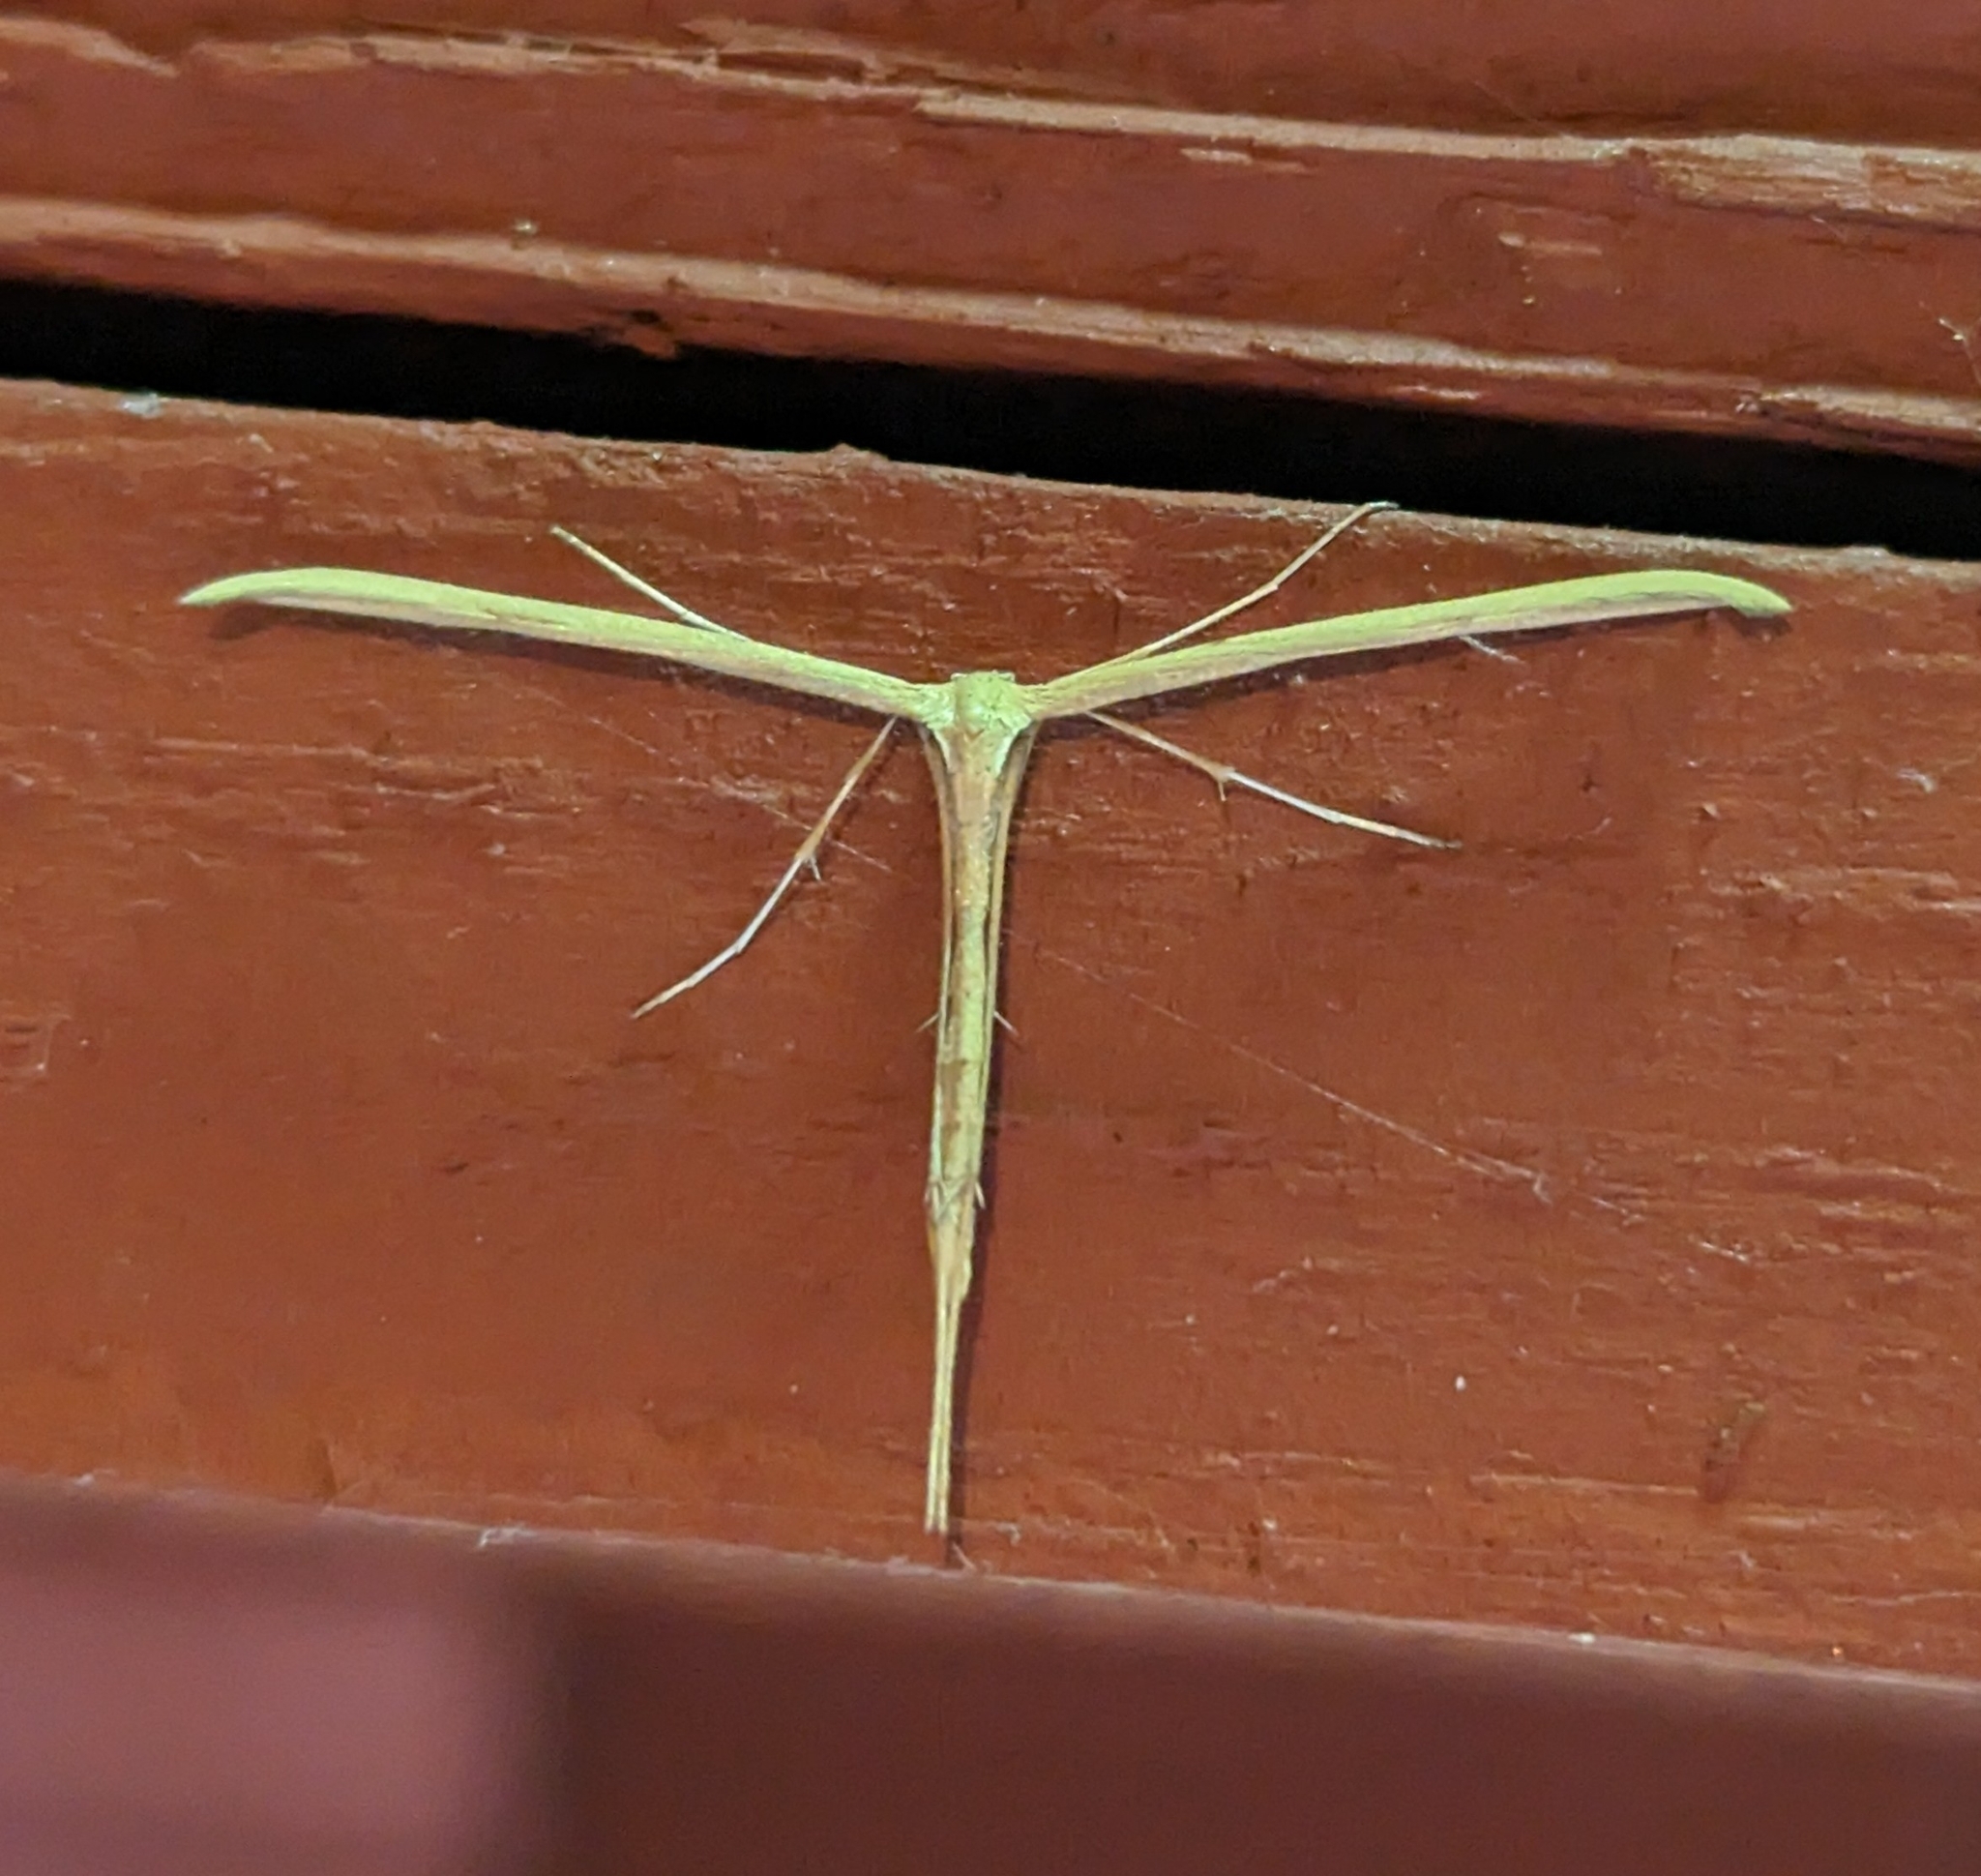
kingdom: Animalia
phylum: Arthropoda
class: Insecta
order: Lepidoptera
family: Pterophoridae
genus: Emmelina
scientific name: Emmelina monodactyla
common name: Common plume
